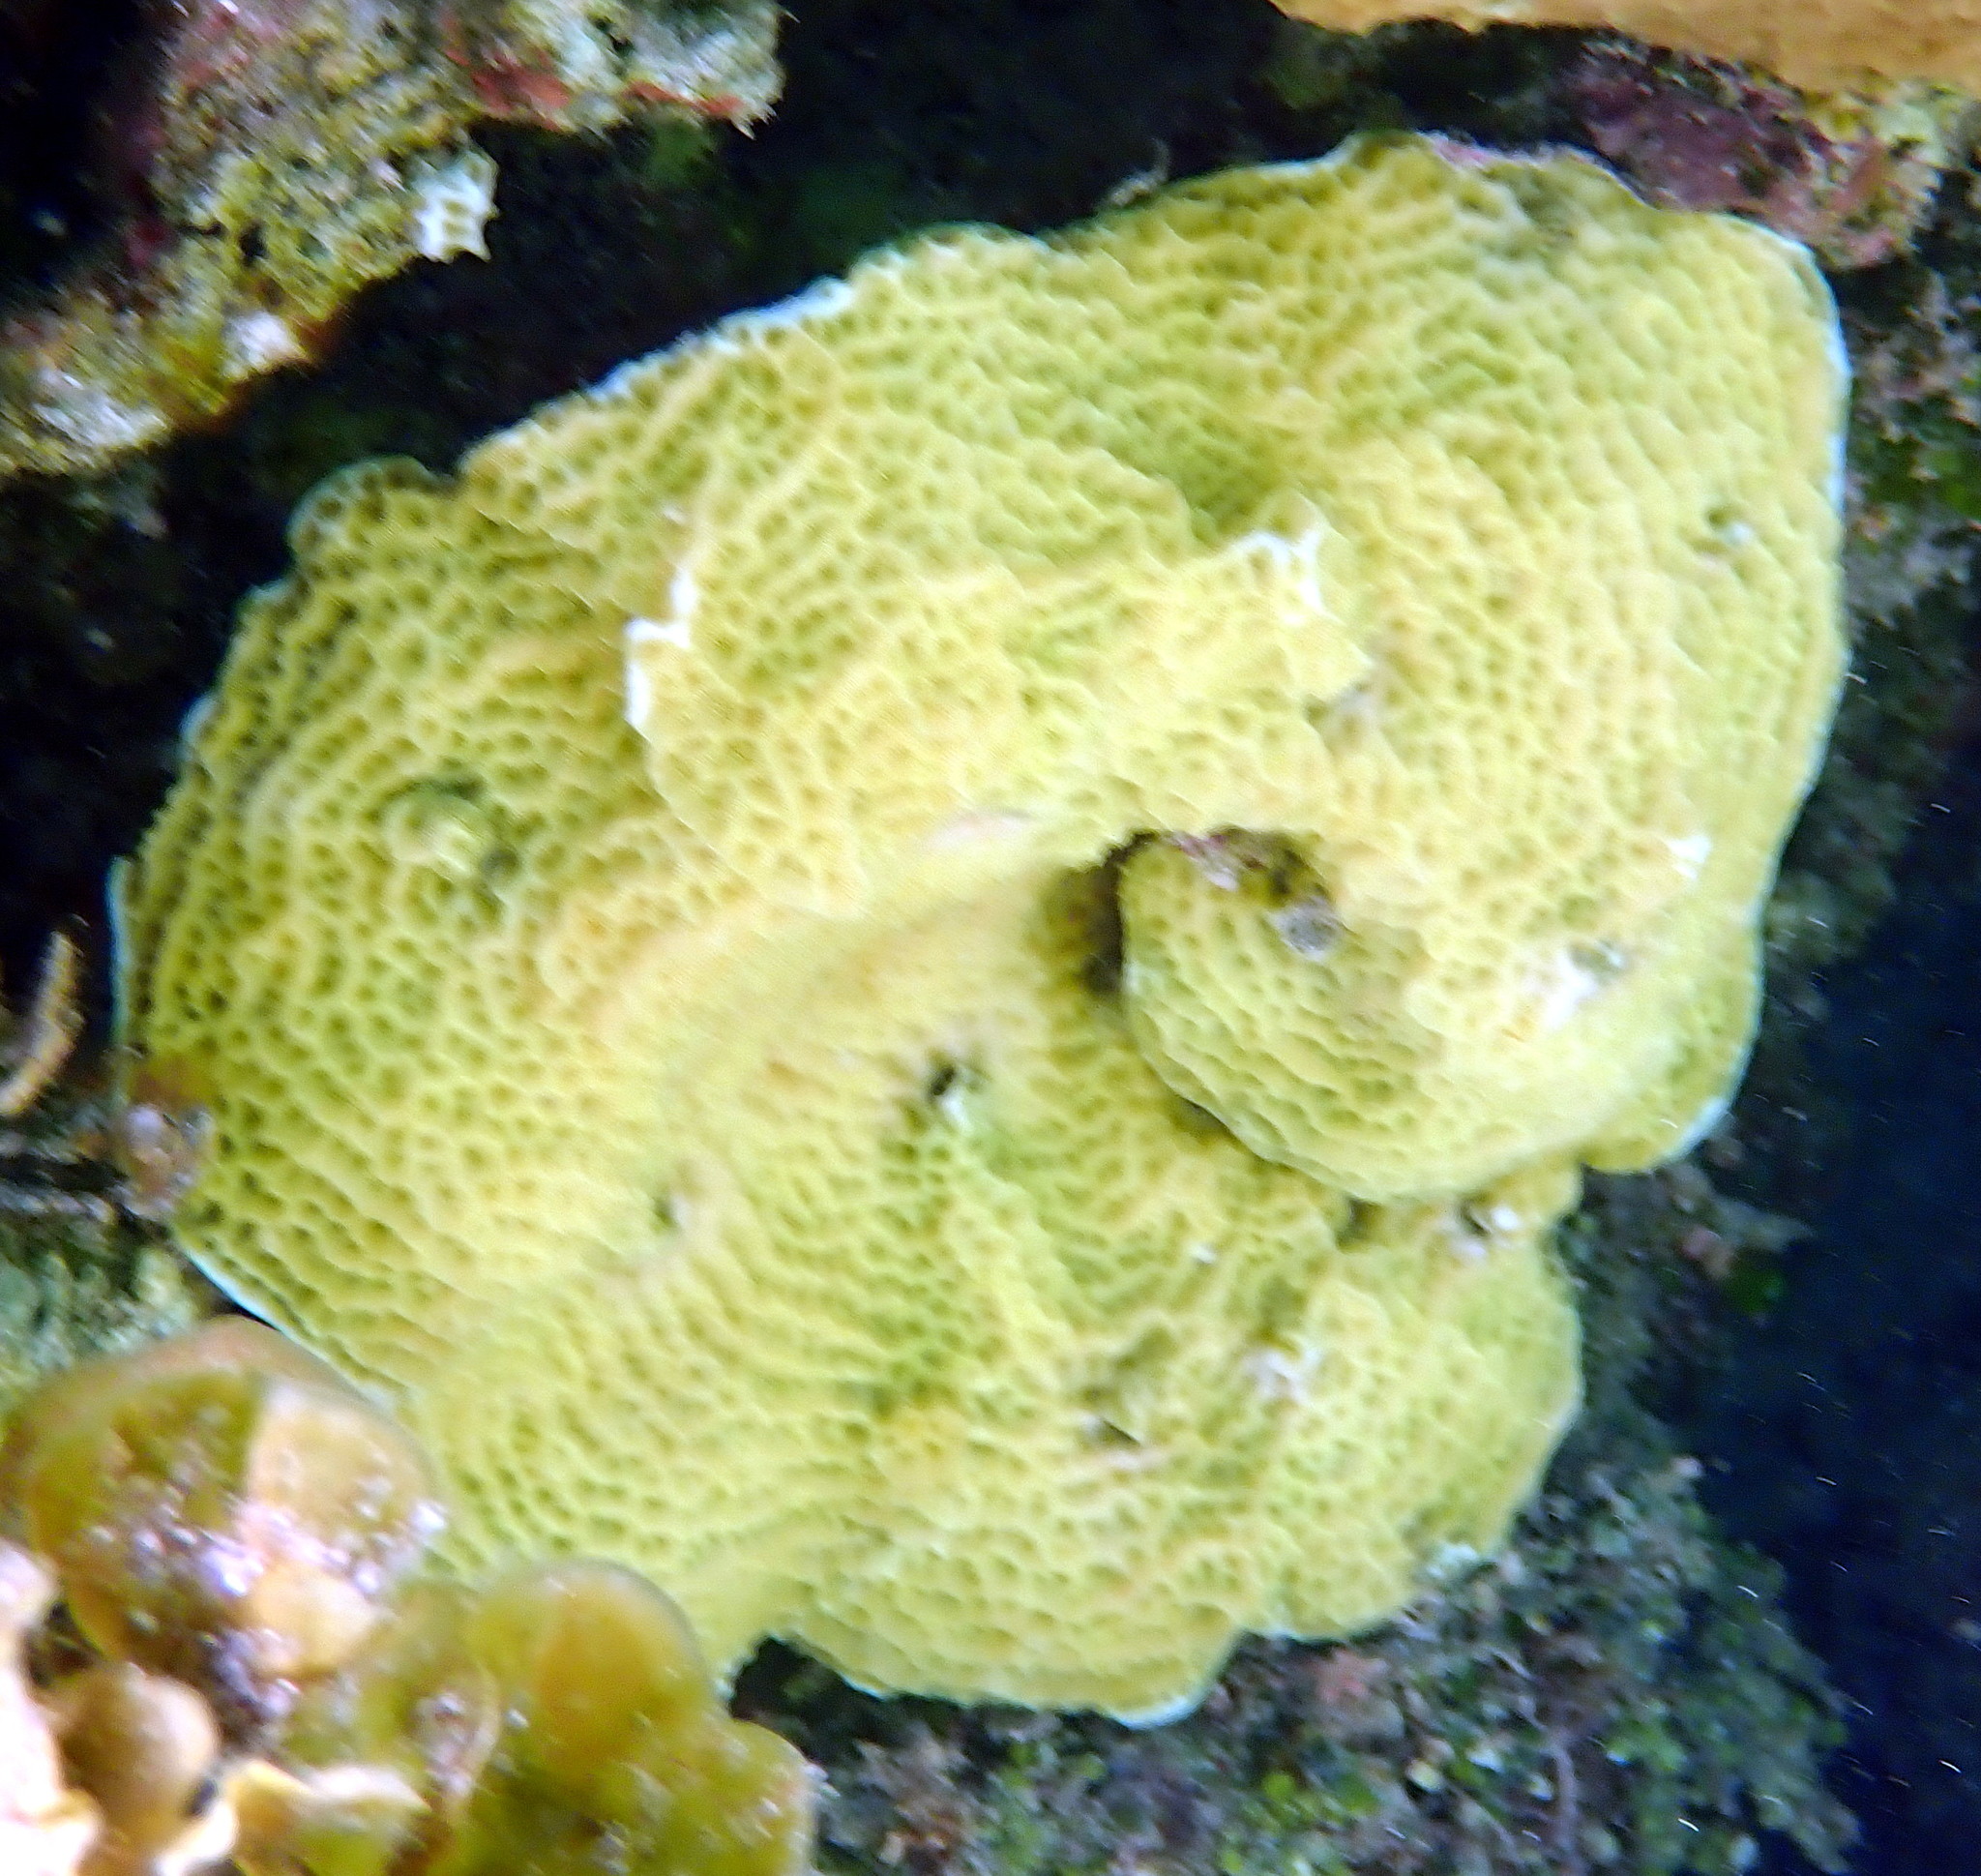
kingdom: Animalia
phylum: Cnidaria
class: Anthozoa
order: Scleractinia
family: Agariciidae
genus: Agaricia
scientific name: Agaricia agaricites
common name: Lettuce coral
